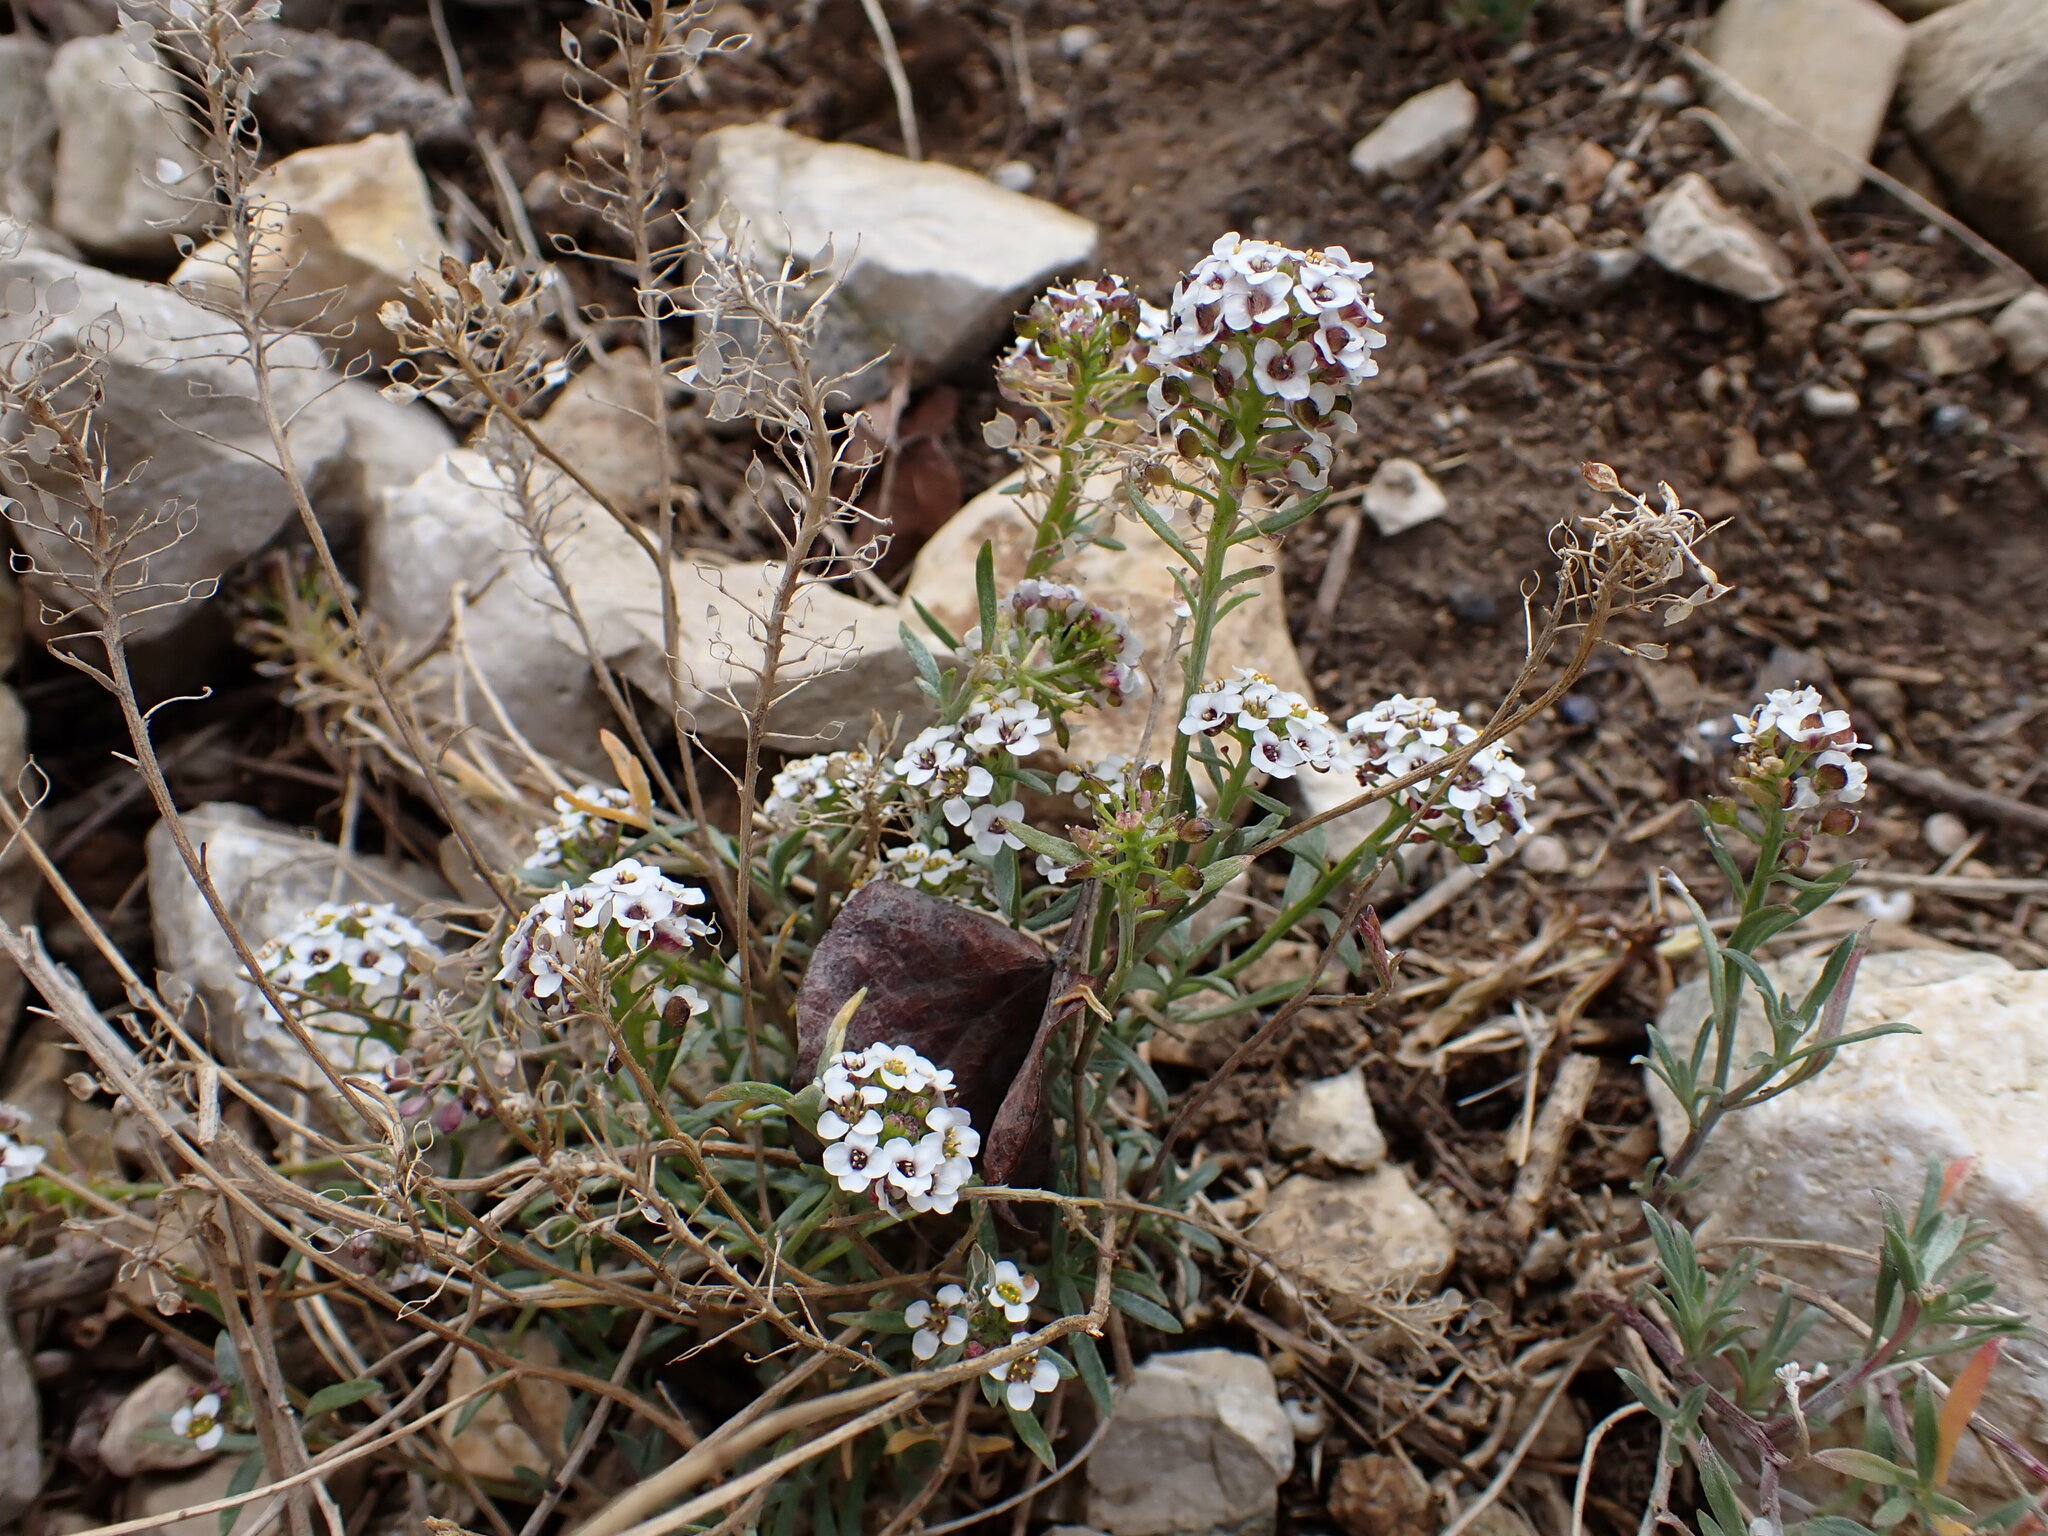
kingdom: Plantae
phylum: Tracheophyta
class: Magnoliopsida
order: Brassicales
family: Brassicaceae
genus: Lobularia
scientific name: Lobularia maritima
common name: Sweet alison
